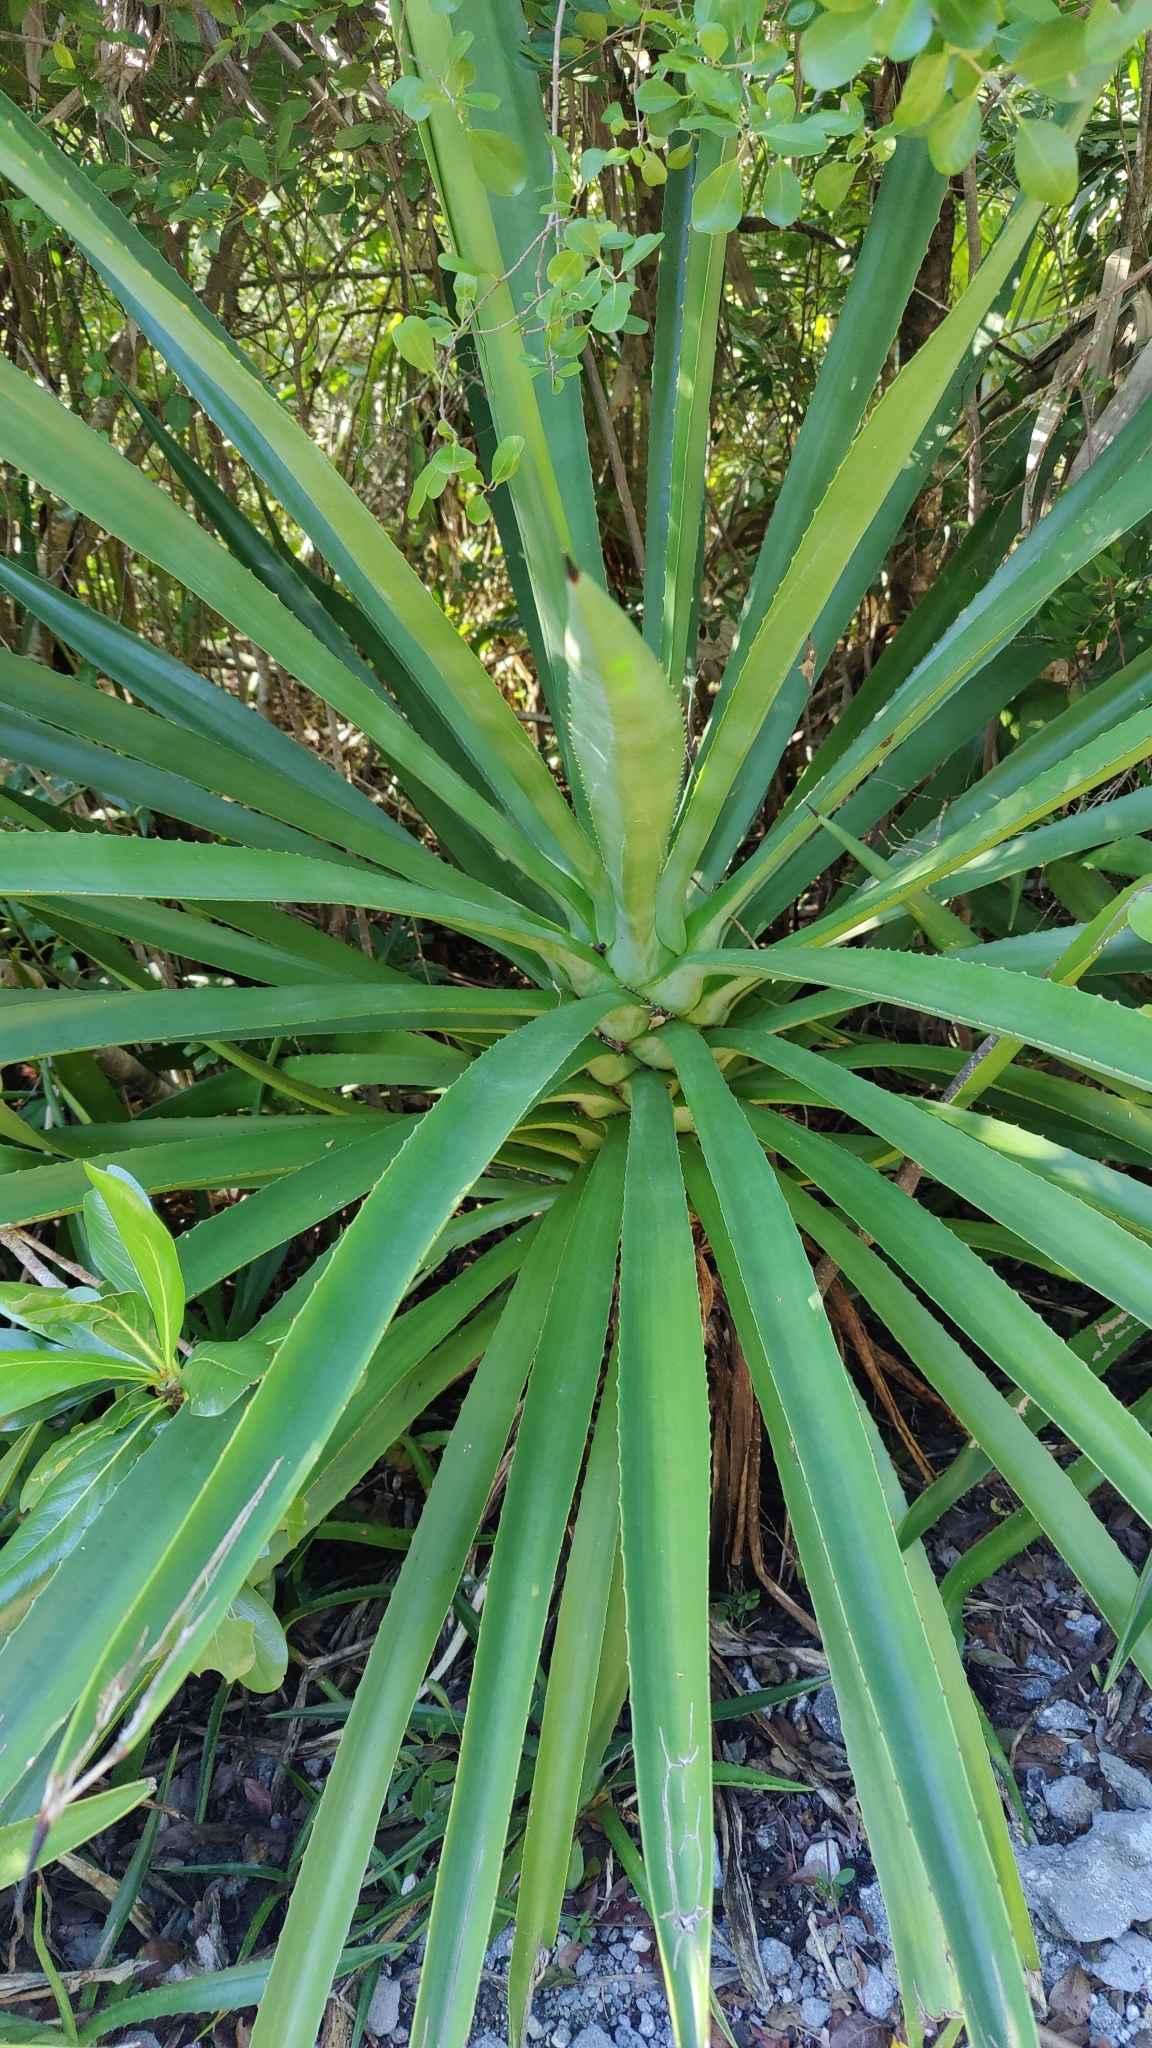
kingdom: Plantae
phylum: Tracheophyta
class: Liliopsida
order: Asparagales
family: Asparagaceae
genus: Agave
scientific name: Agave decipiens
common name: False sisal
